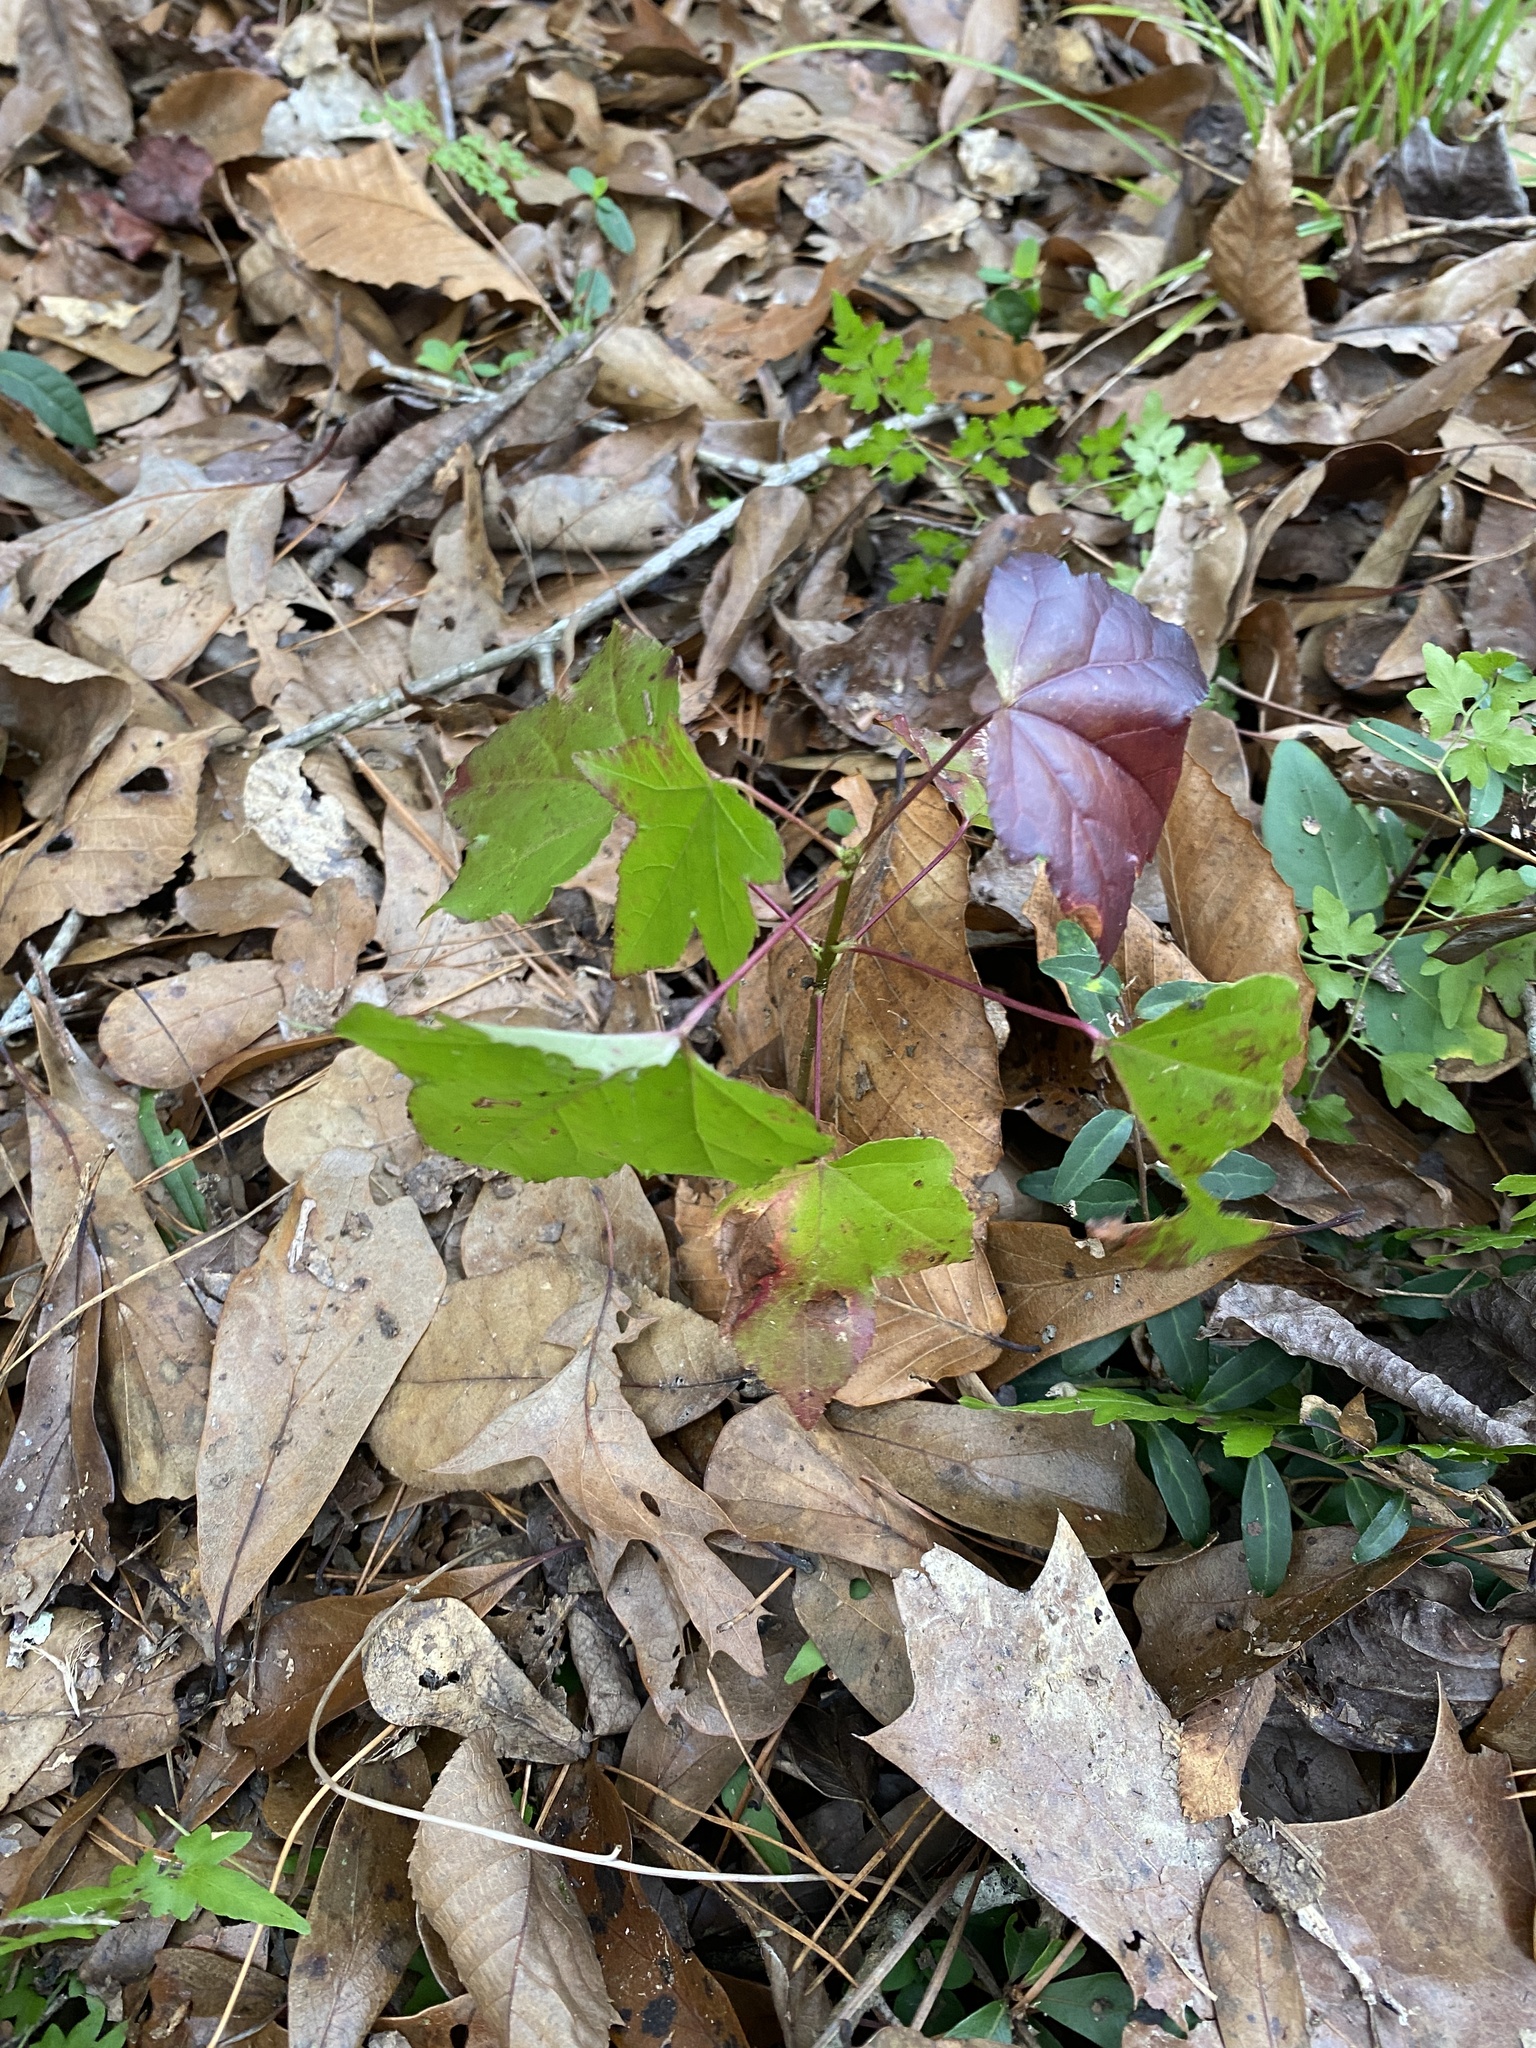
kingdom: Plantae
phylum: Tracheophyta
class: Magnoliopsida
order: Saxifragales
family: Altingiaceae
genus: Liquidambar
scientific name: Liquidambar styraciflua
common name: Sweet gum
